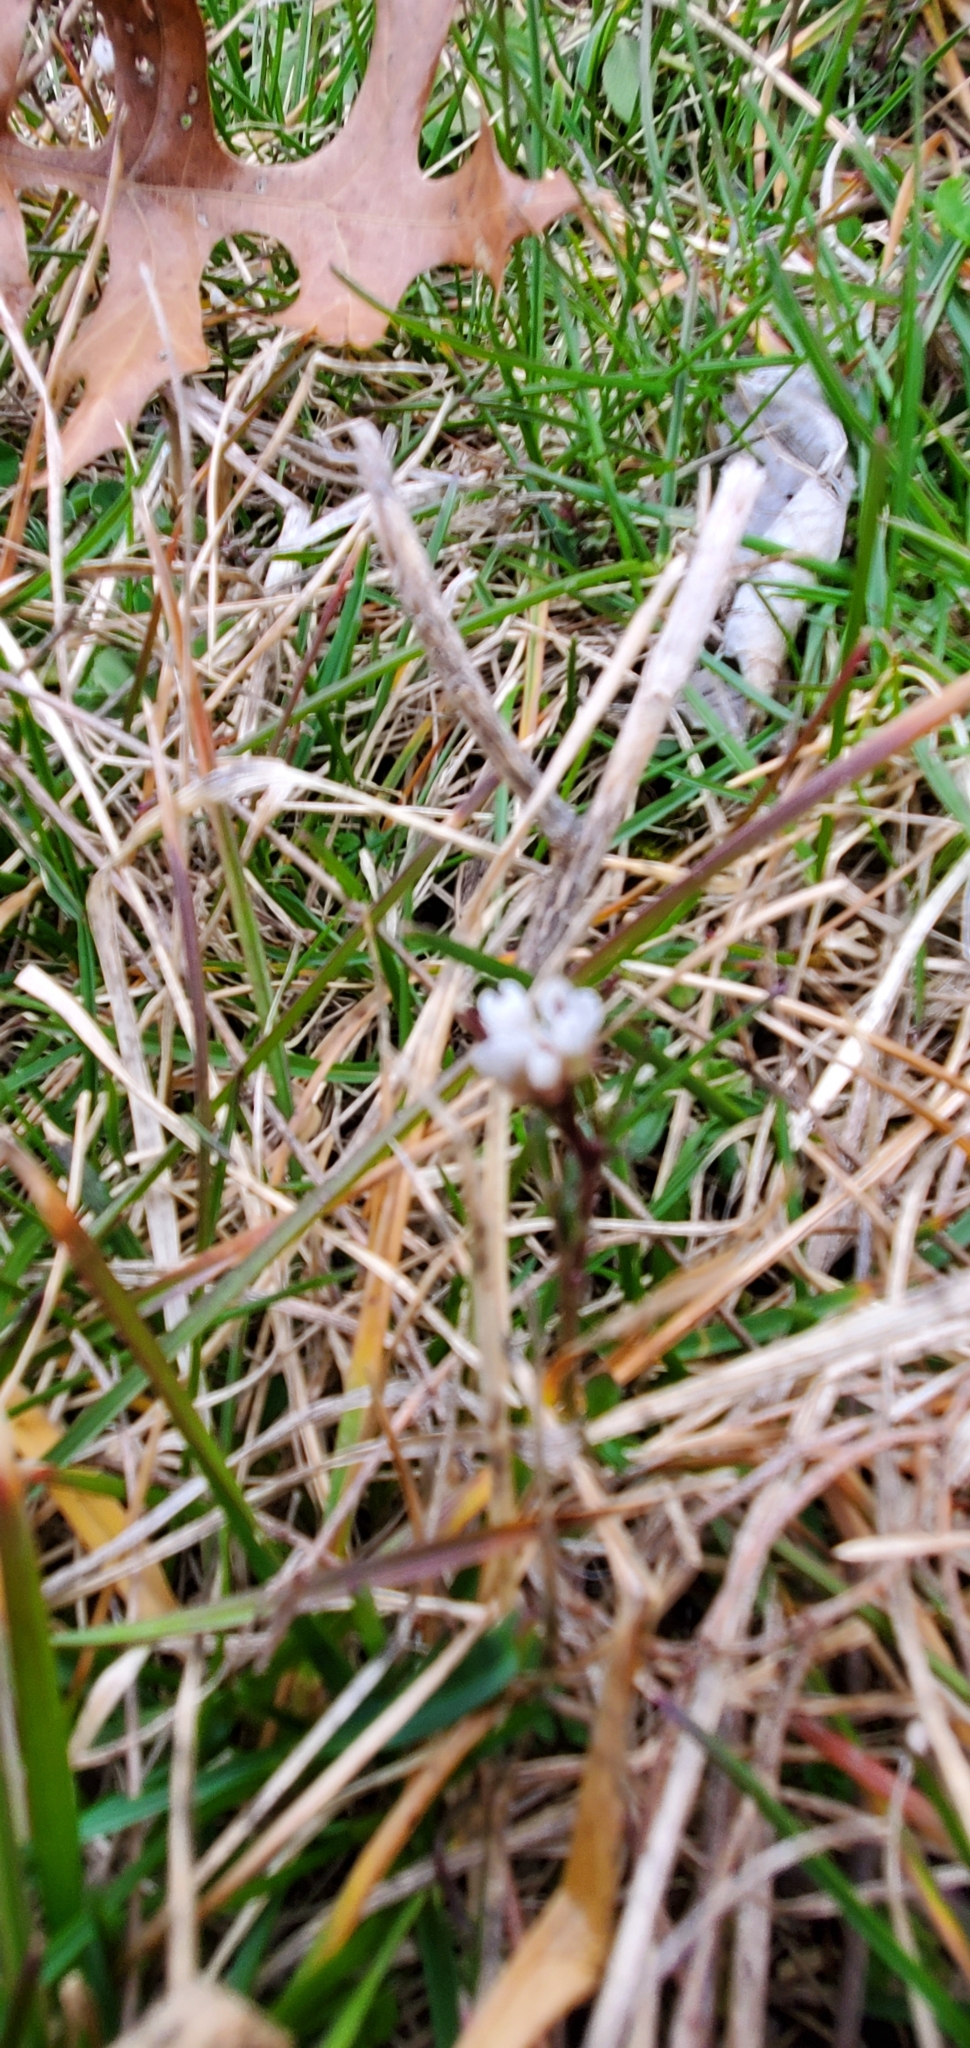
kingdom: Plantae
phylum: Tracheophyta
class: Magnoliopsida
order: Brassicales
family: Brassicaceae
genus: Cardamine
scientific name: Cardamine hirsuta
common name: Hairy bittercress
